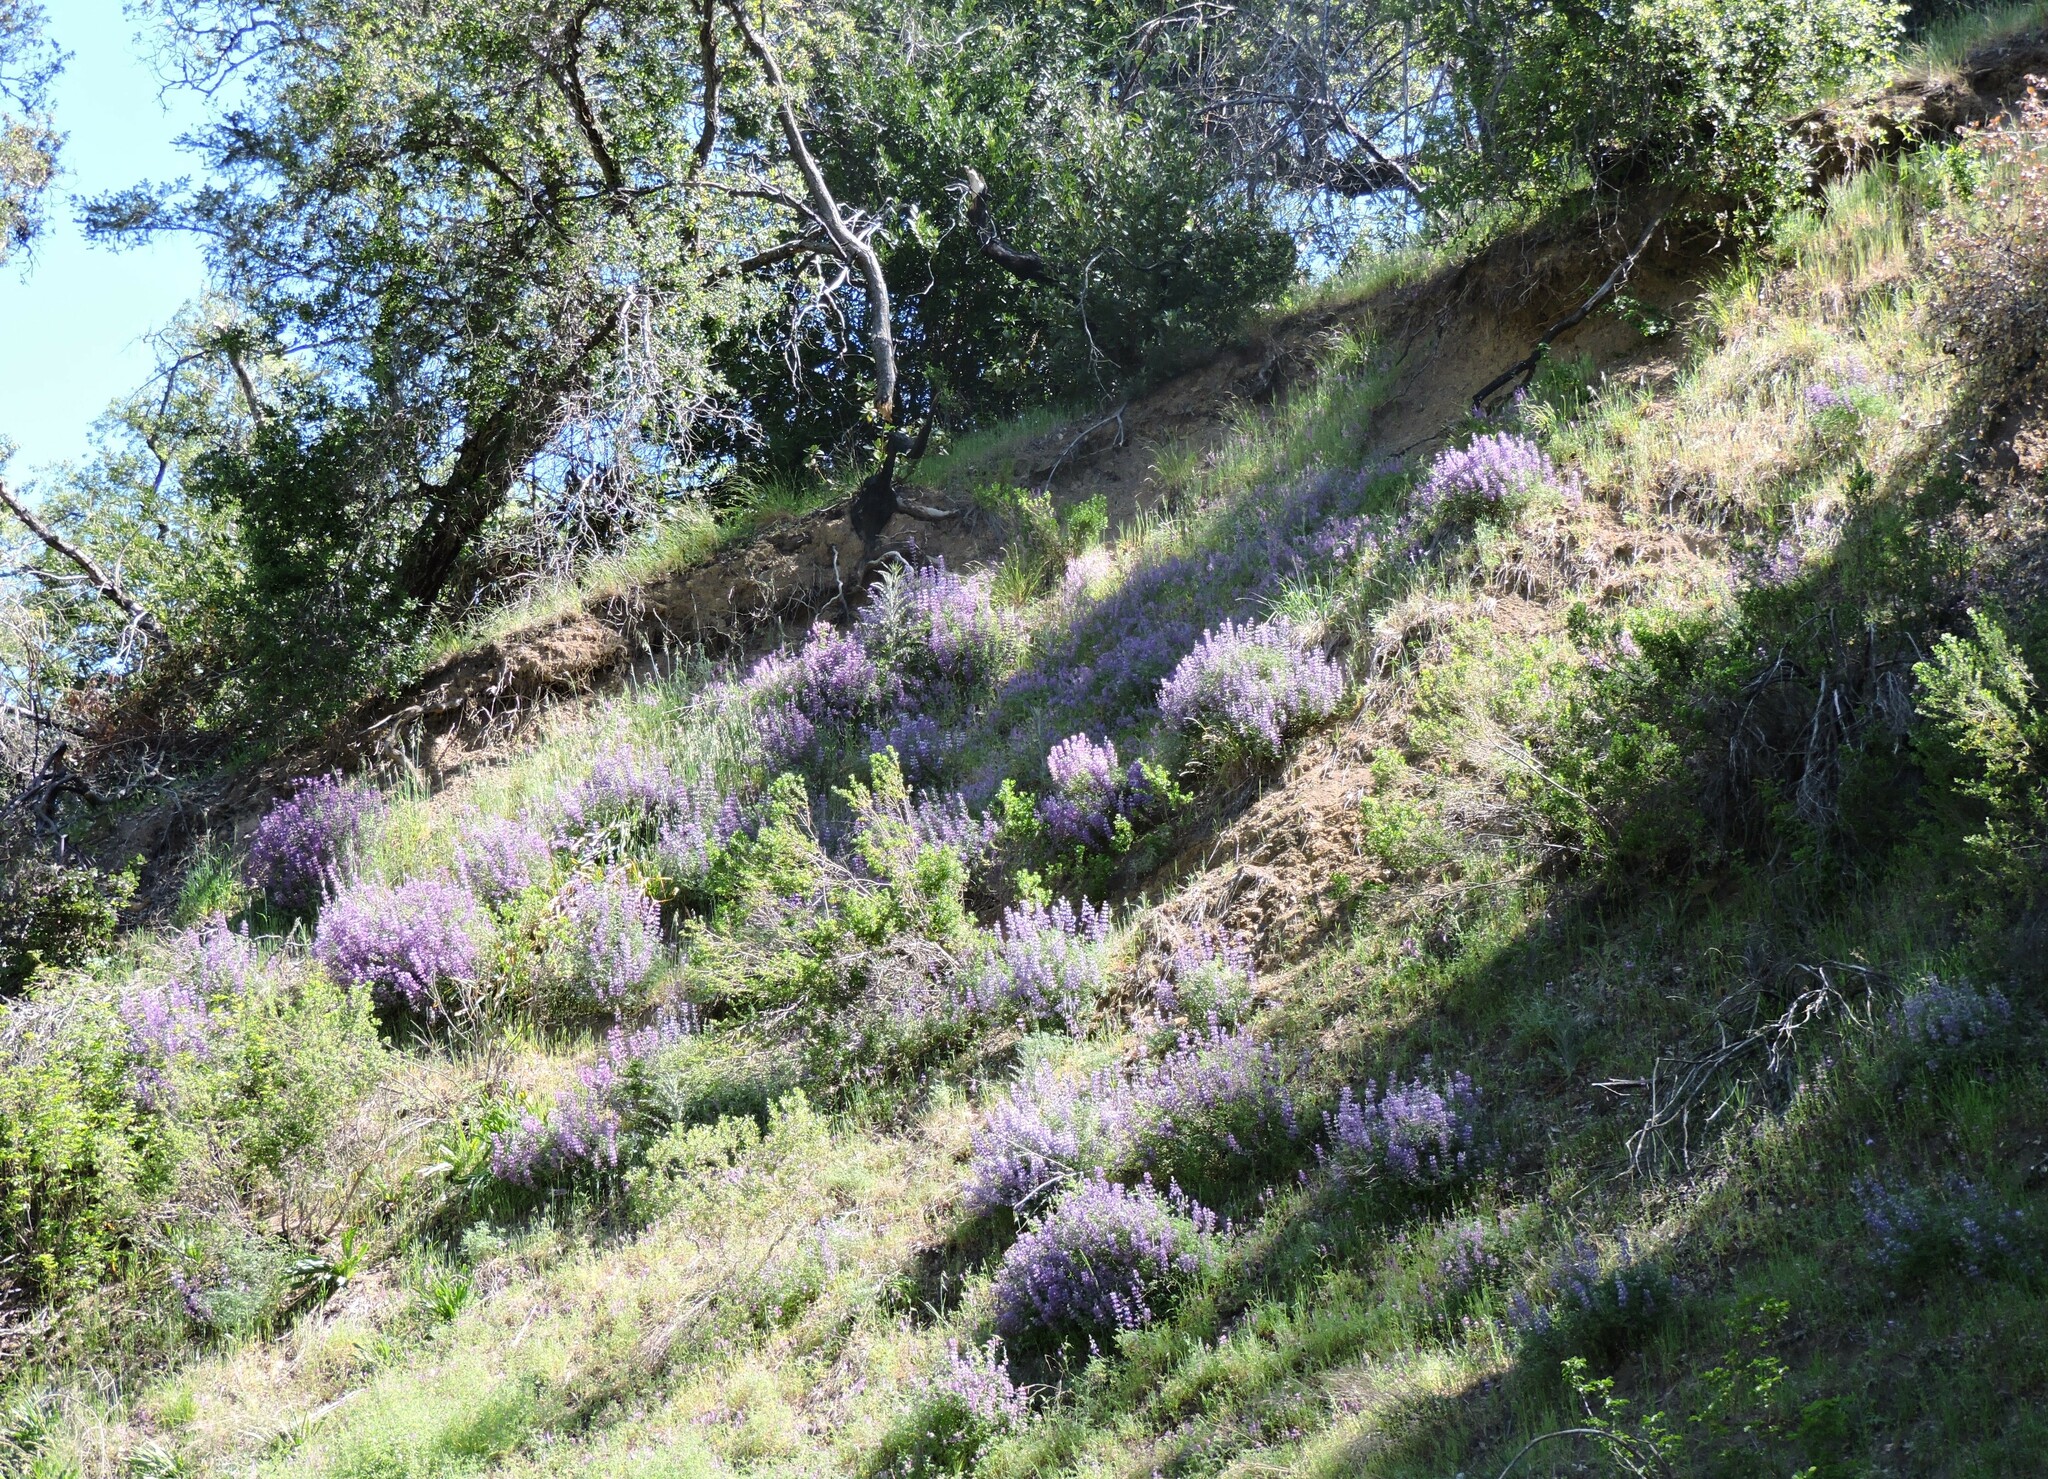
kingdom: Plantae
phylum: Tracheophyta
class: Magnoliopsida
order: Fabales
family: Fabaceae
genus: Lupinus
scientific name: Lupinus albifrons
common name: Foothill lupine
